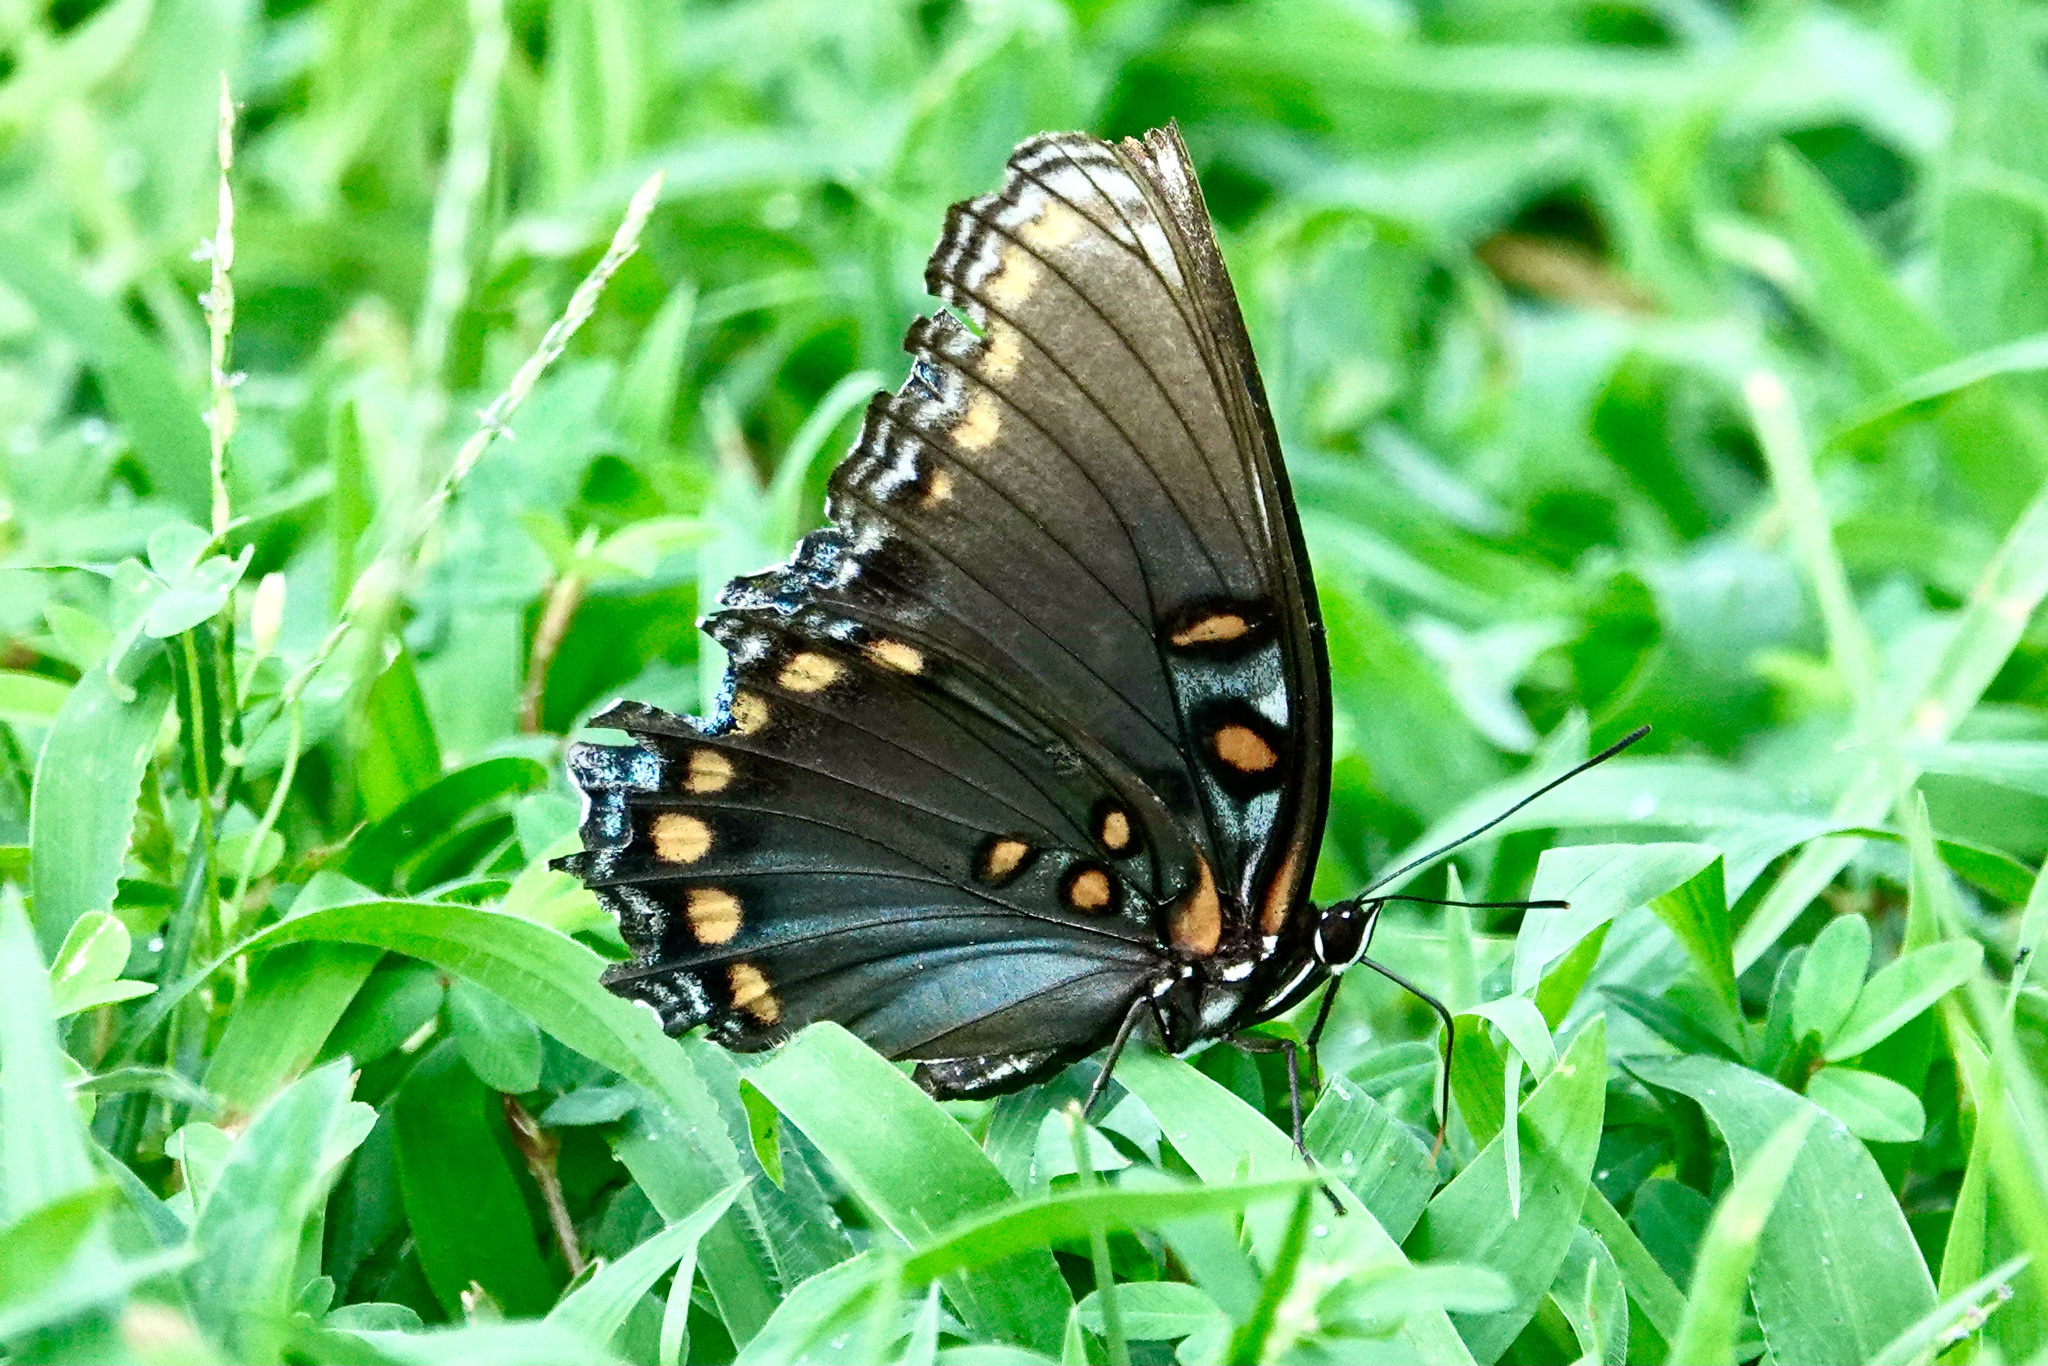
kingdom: Animalia
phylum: Arthropoda
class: Insecta
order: Lepidoptera
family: Nymphalidae
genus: Limenitis
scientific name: Limenitis astyanax
